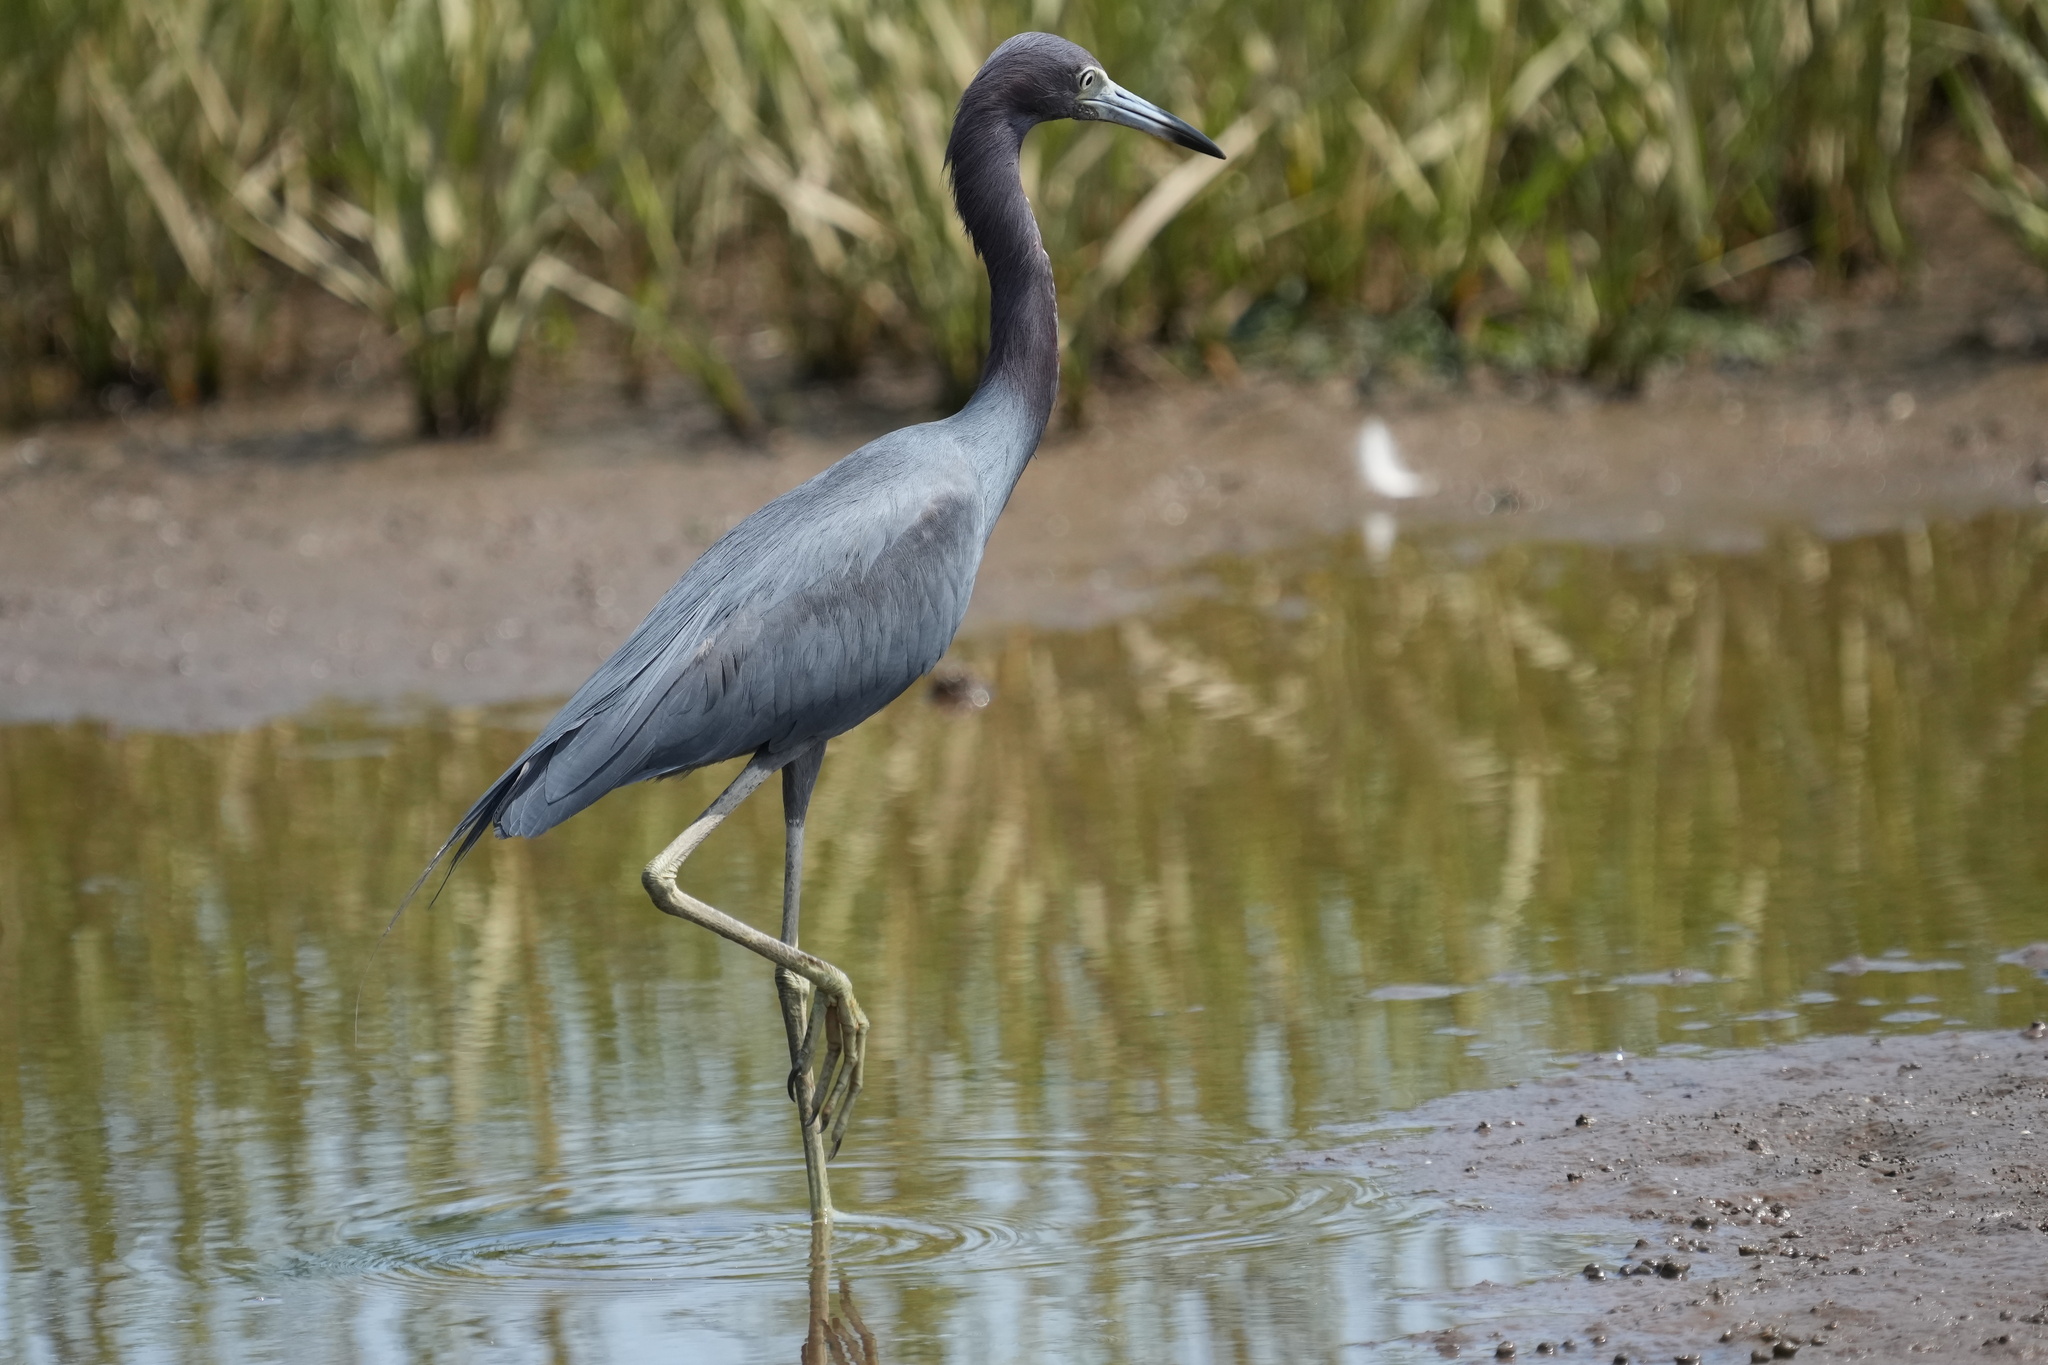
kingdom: Animalia
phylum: Chordata
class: Aves
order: Pelecaniformes
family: Ardeidae
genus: Egretta
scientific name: Egretta caerulea
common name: Little blue heron
